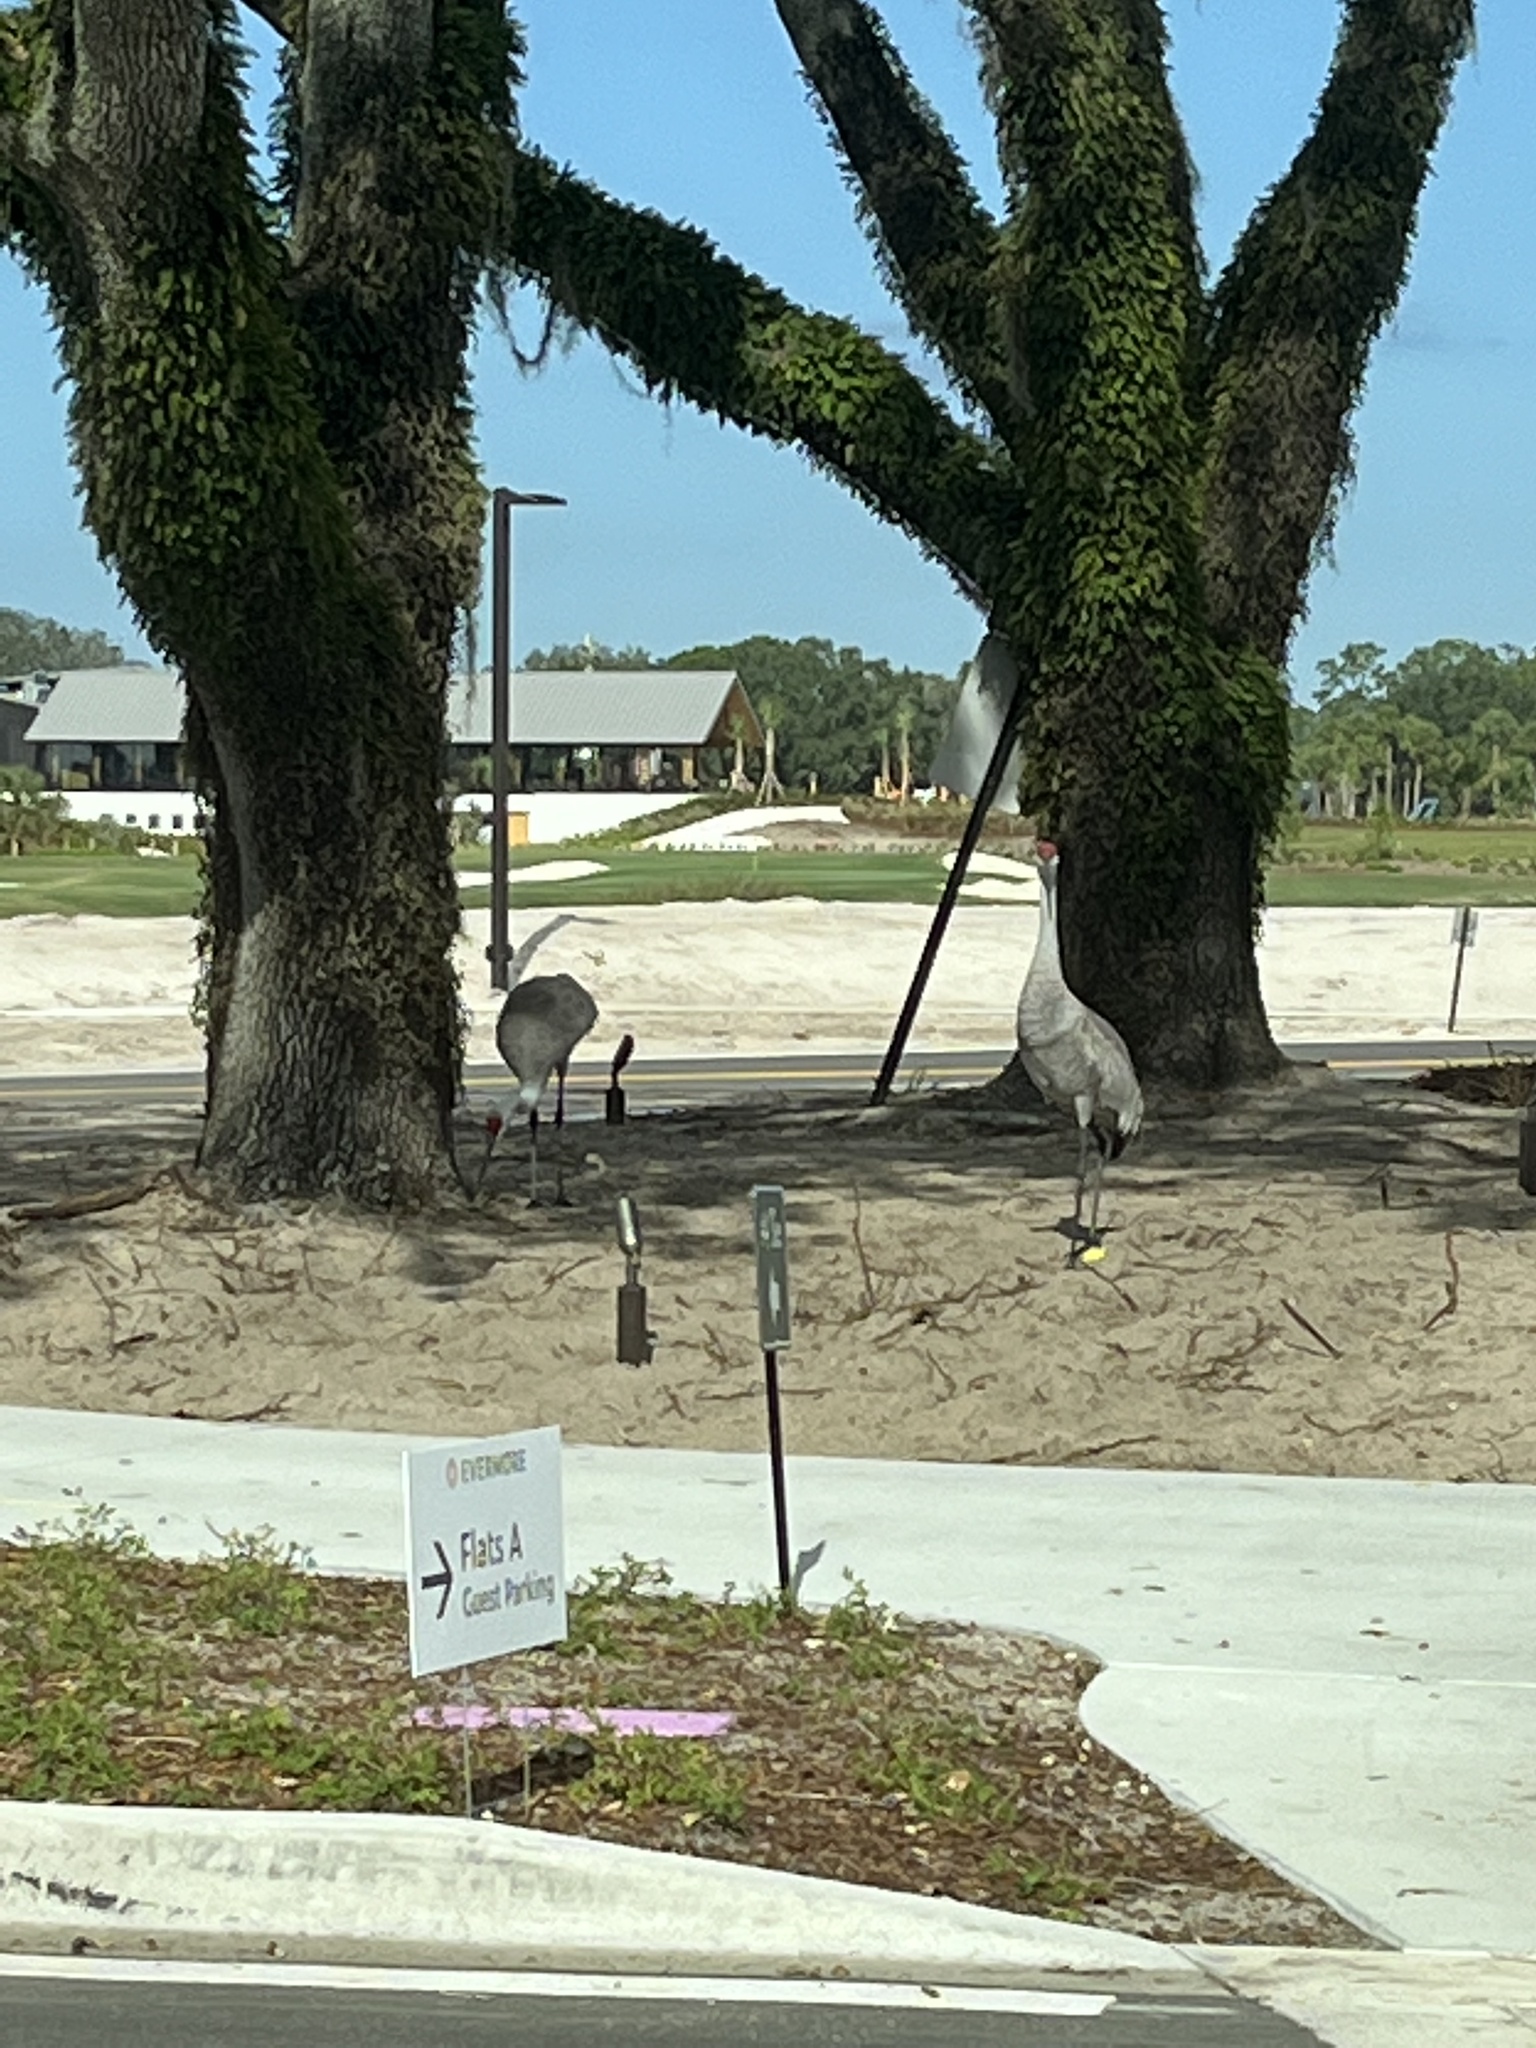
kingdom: Animalia
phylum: Chordata
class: Aves
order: Gruiformes
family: Gruidae
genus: Grus
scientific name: Grus canadensis
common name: Sandhill crane
